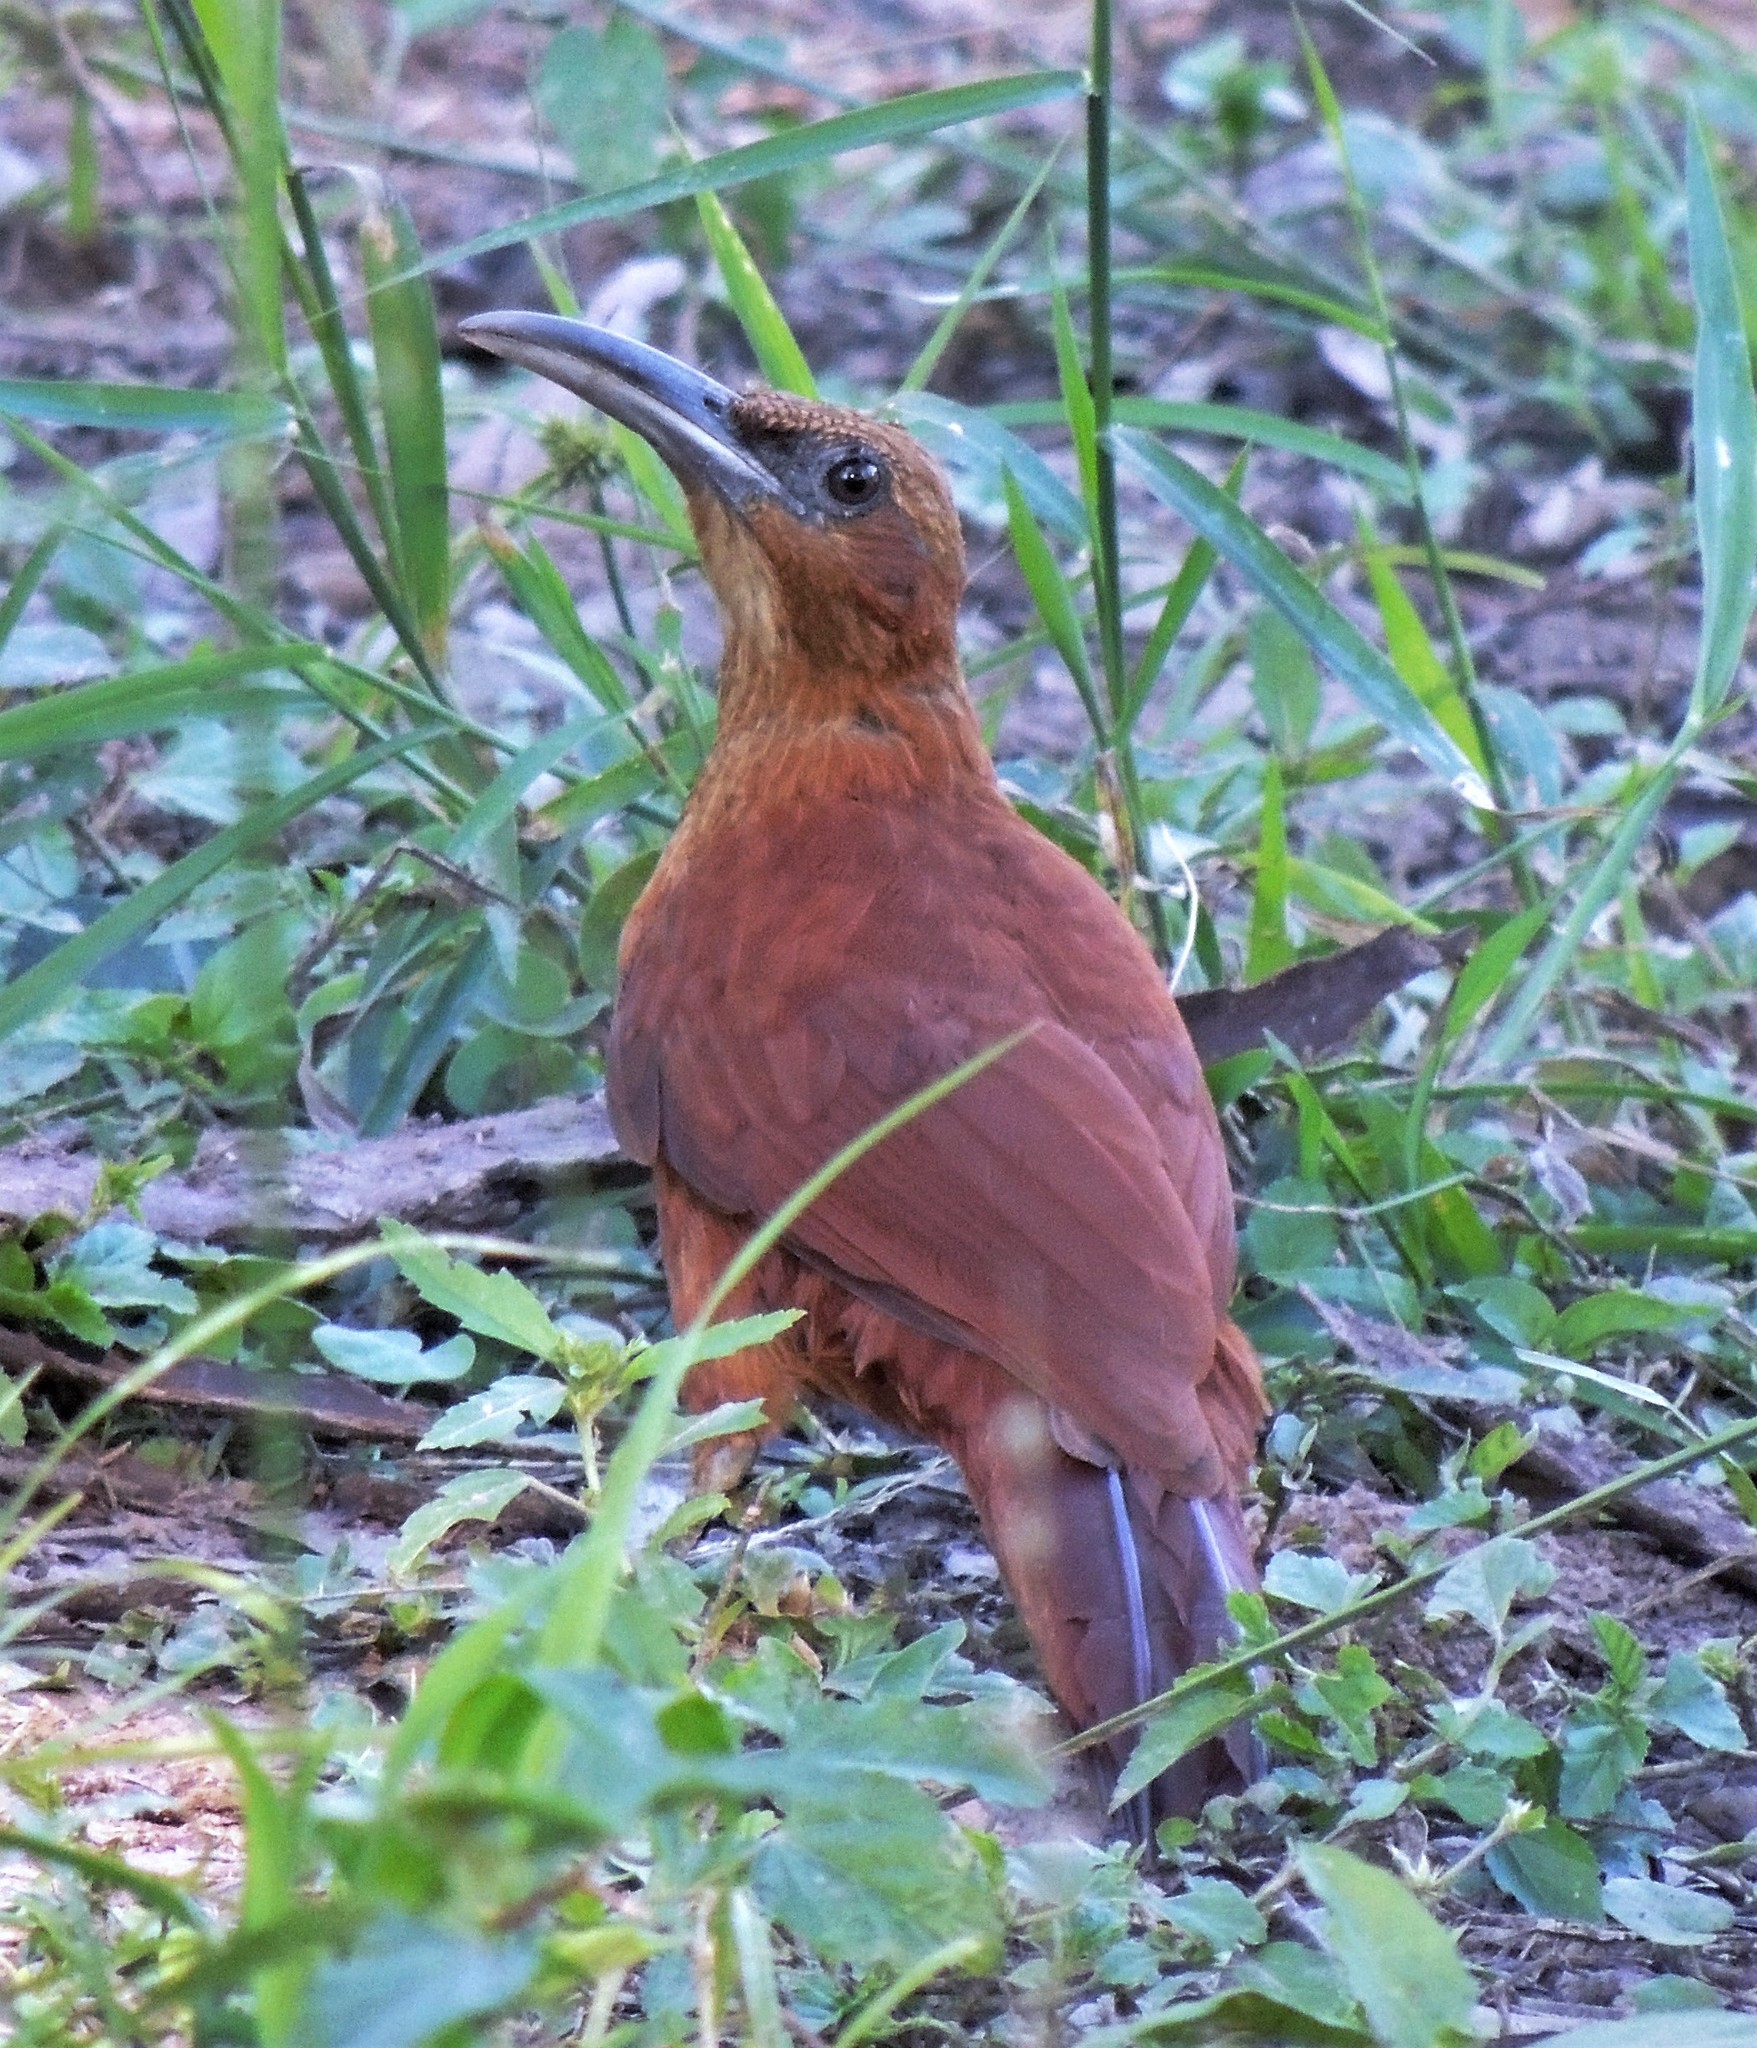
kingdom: Animalia
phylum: Chordata
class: Aves
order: Passeriformes
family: Furnariidae
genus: Xiphocolaptes
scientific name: Xiphocolaptes major
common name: Great rufous woodcreeper
